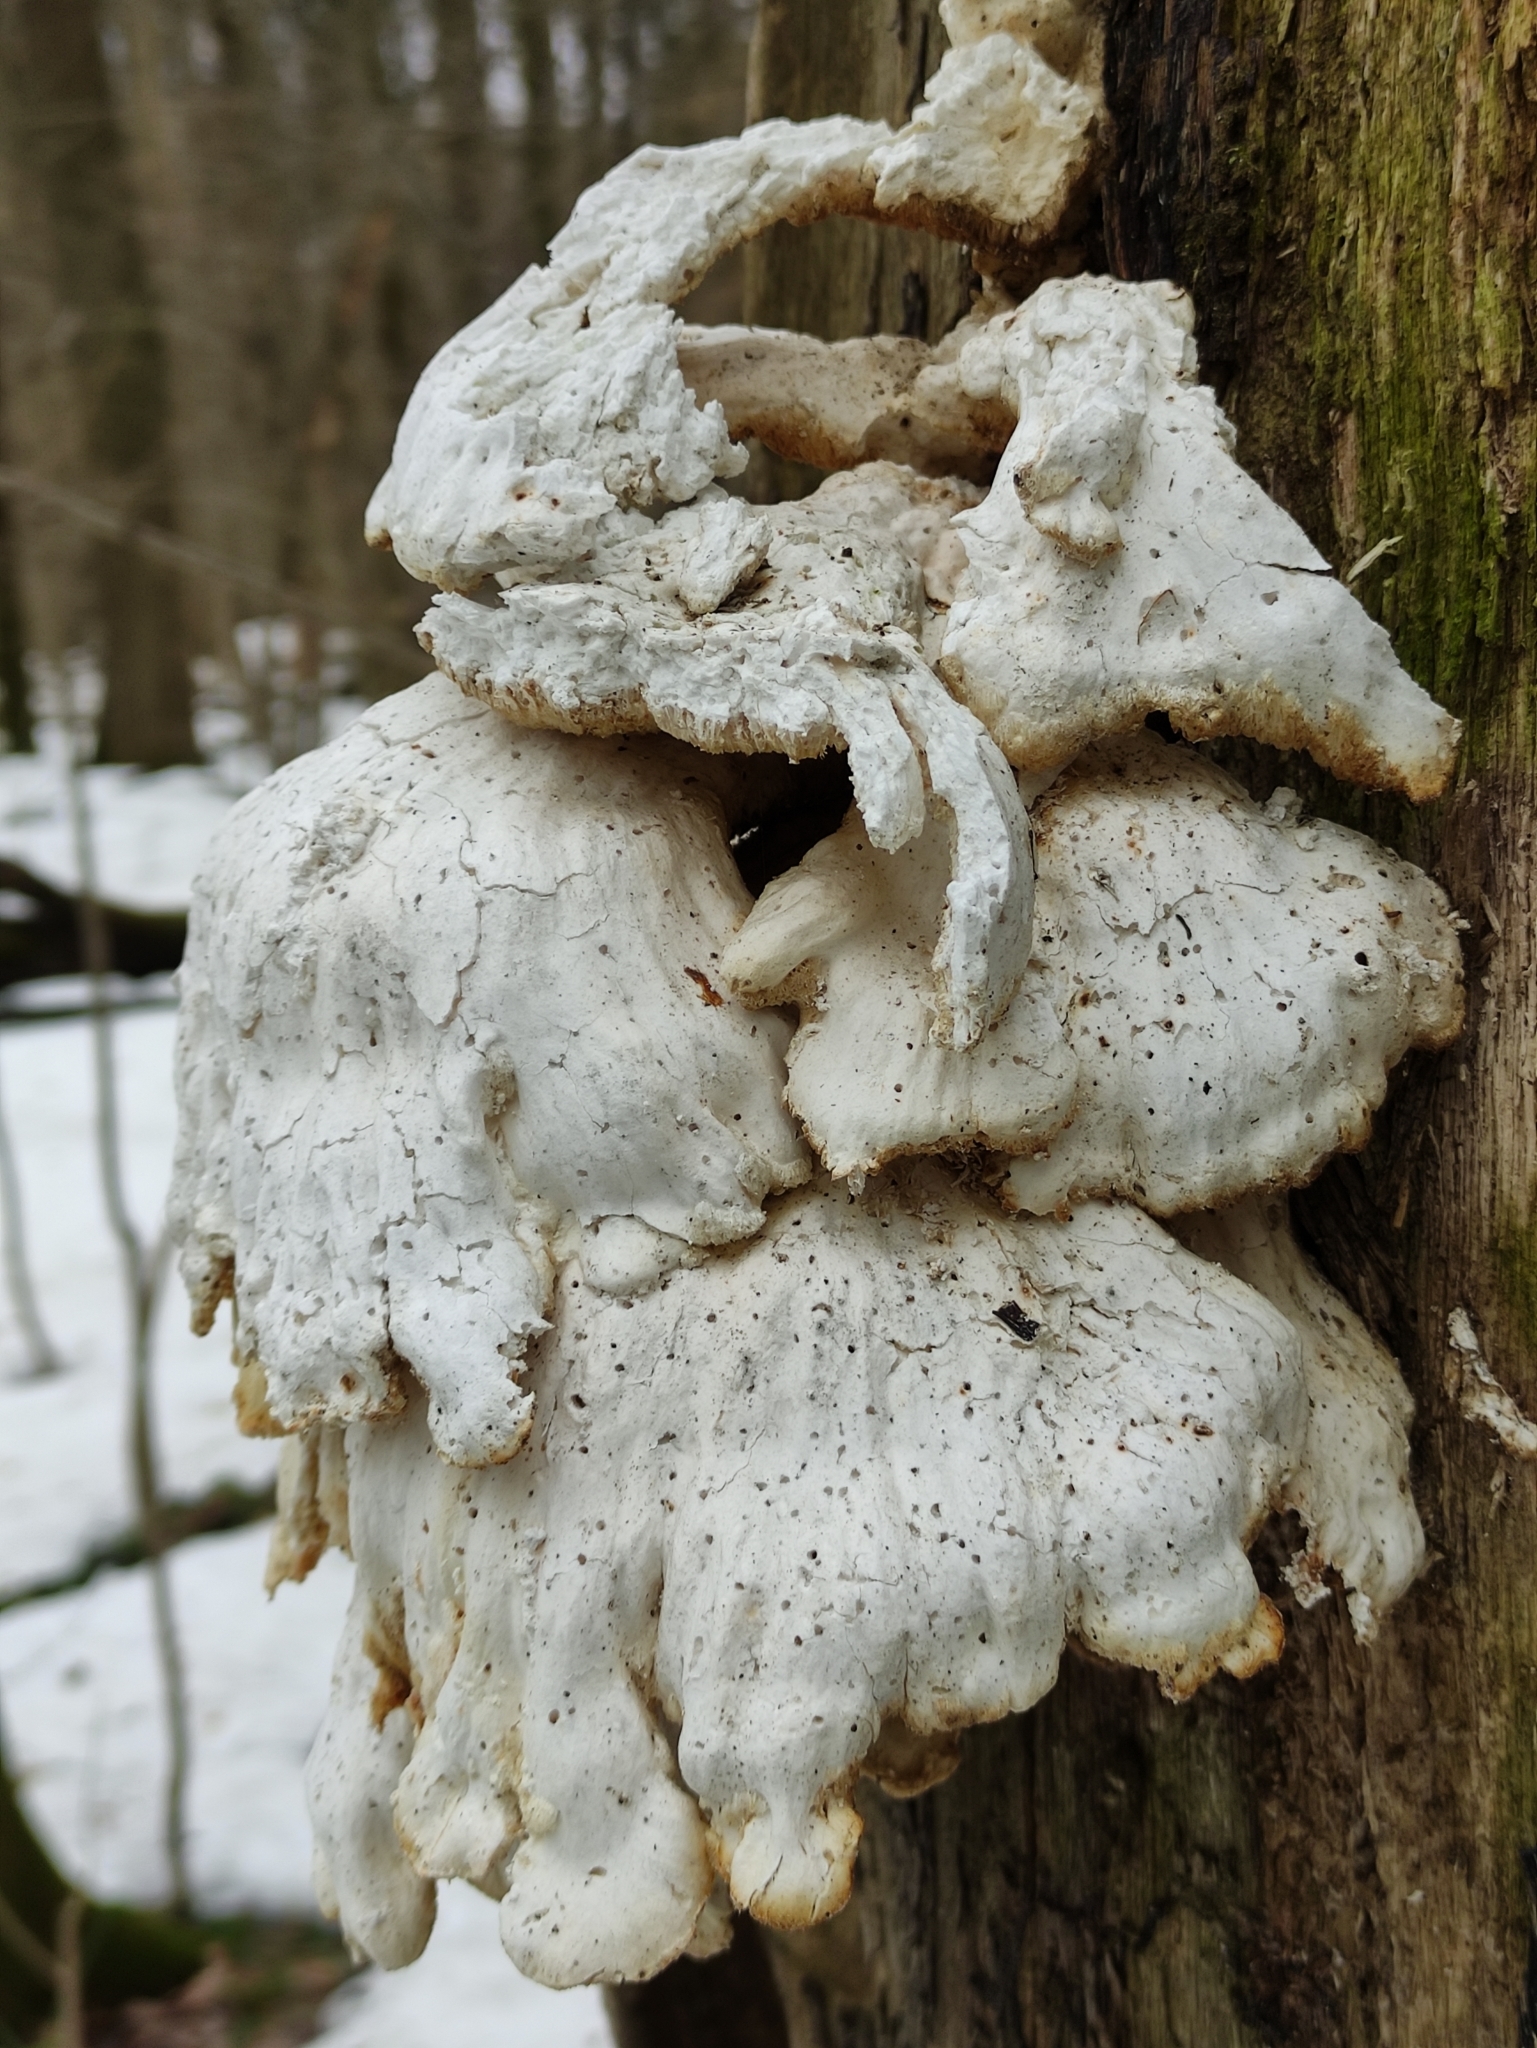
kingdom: Fungi
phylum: Basidiomycota
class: Agaricomycetes
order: Polyporales
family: Laetiporaceae
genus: Laetiporus
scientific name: Laetiporus sulphureus
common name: Chicken of the woods
